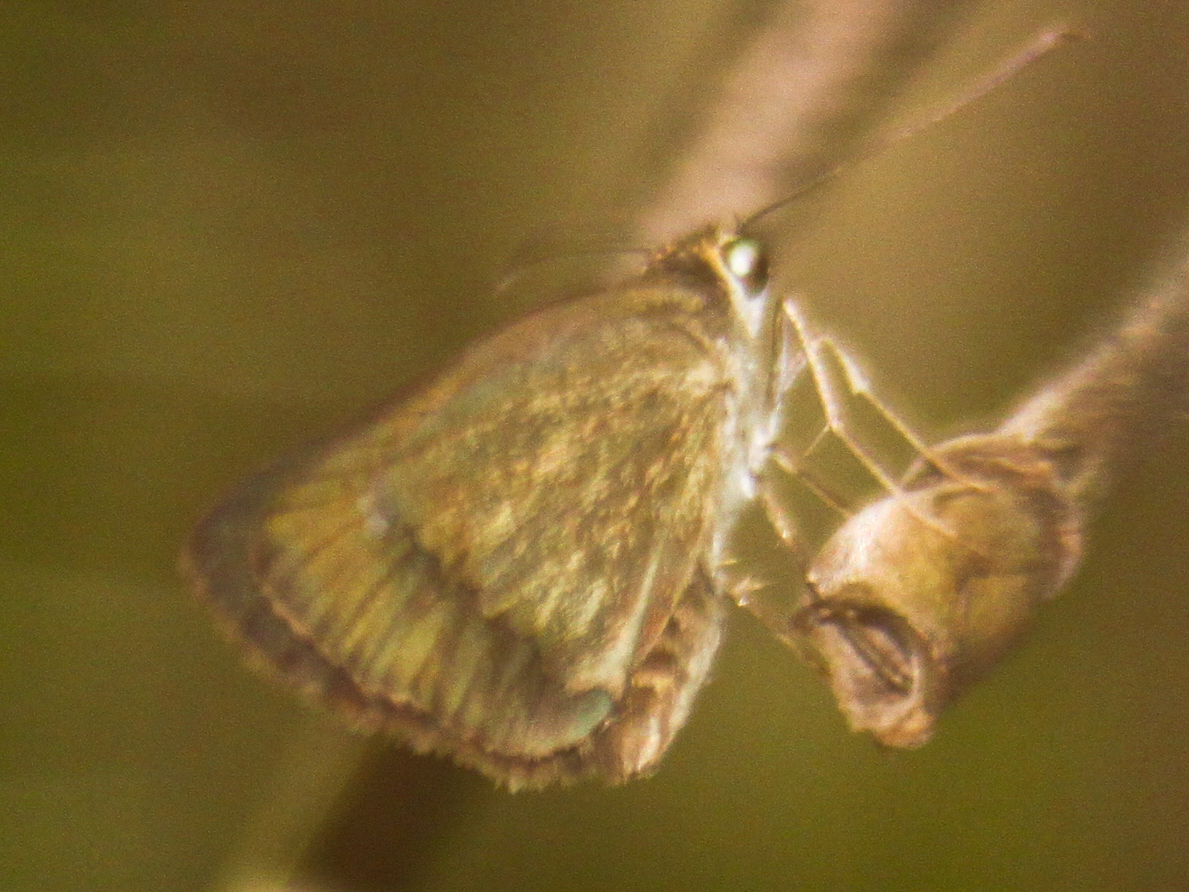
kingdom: Animalia
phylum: Arthropoda
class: Insecta
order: Lepidoptera
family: Hesperiidae
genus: Suada
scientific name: Suada swerga
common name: Grass bob
